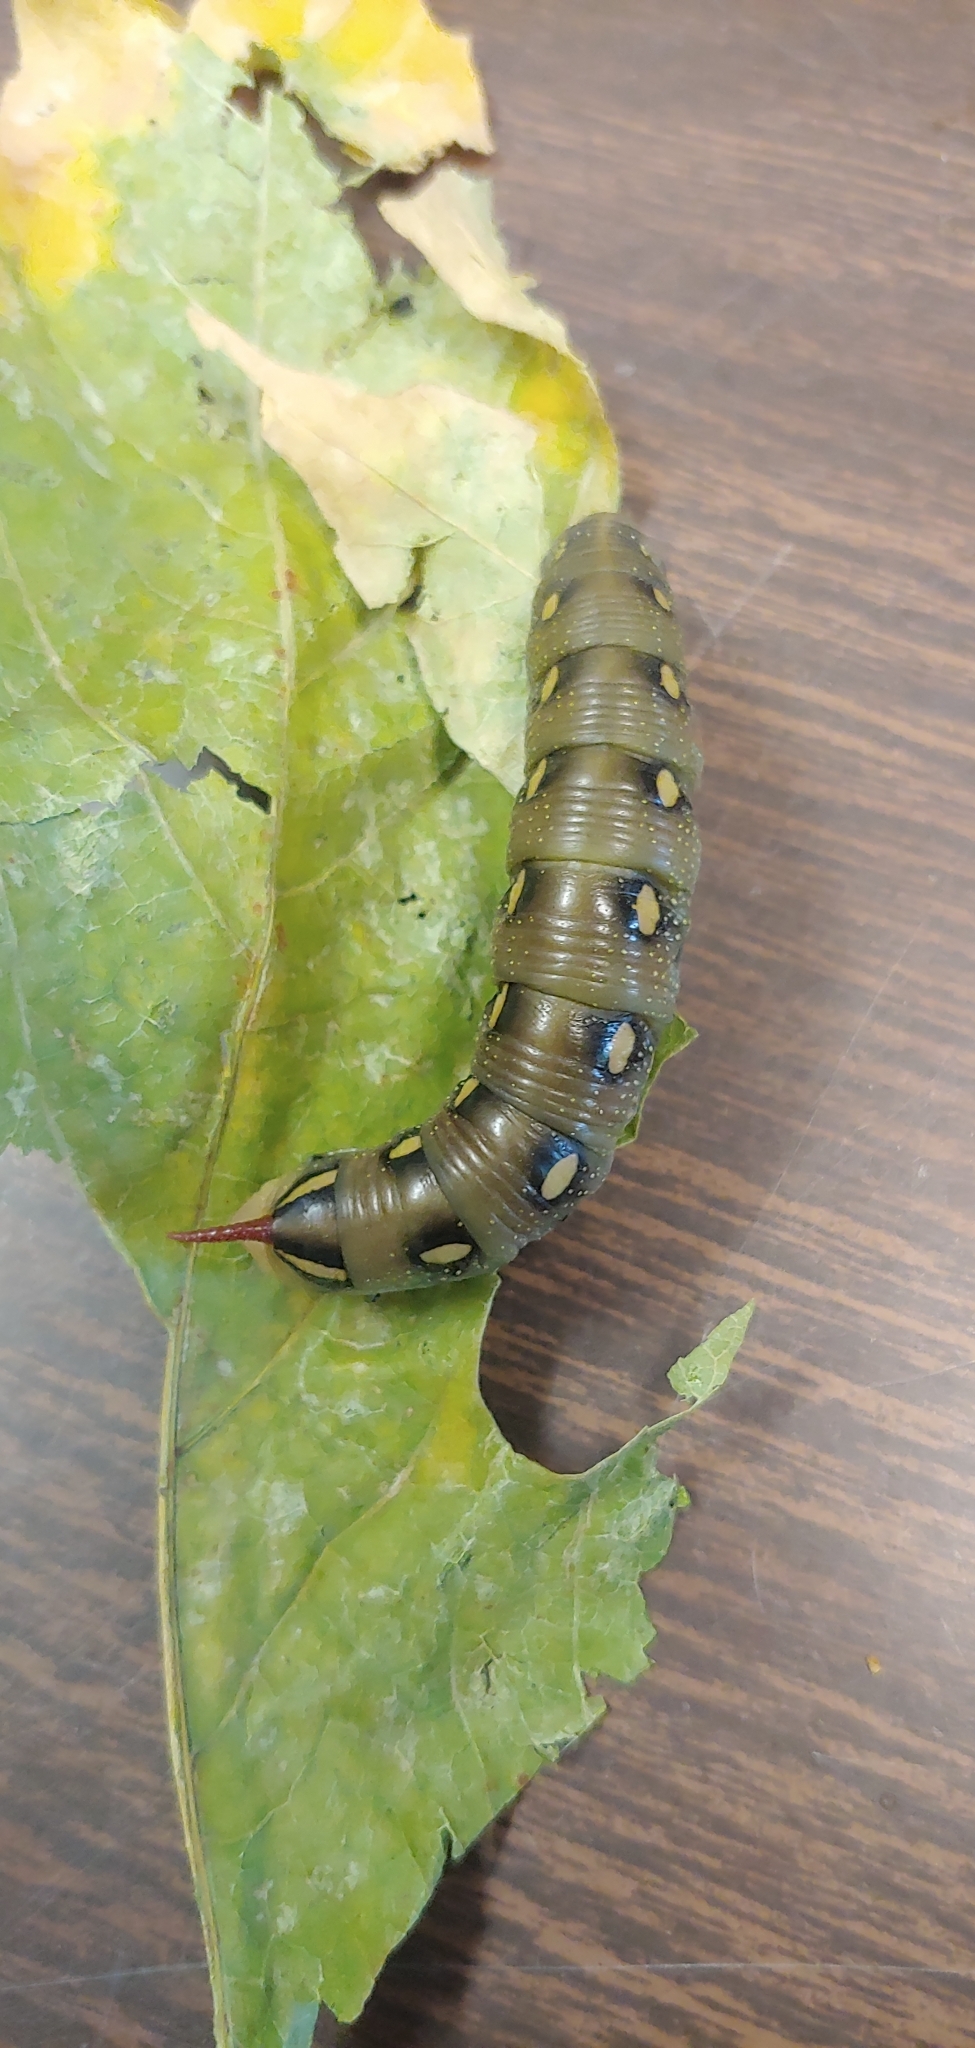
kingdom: Animalia
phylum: Arthropoda
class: Insecta
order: Lepidoptera
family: Sphingidae
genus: Hyles
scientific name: Hyles gallii
